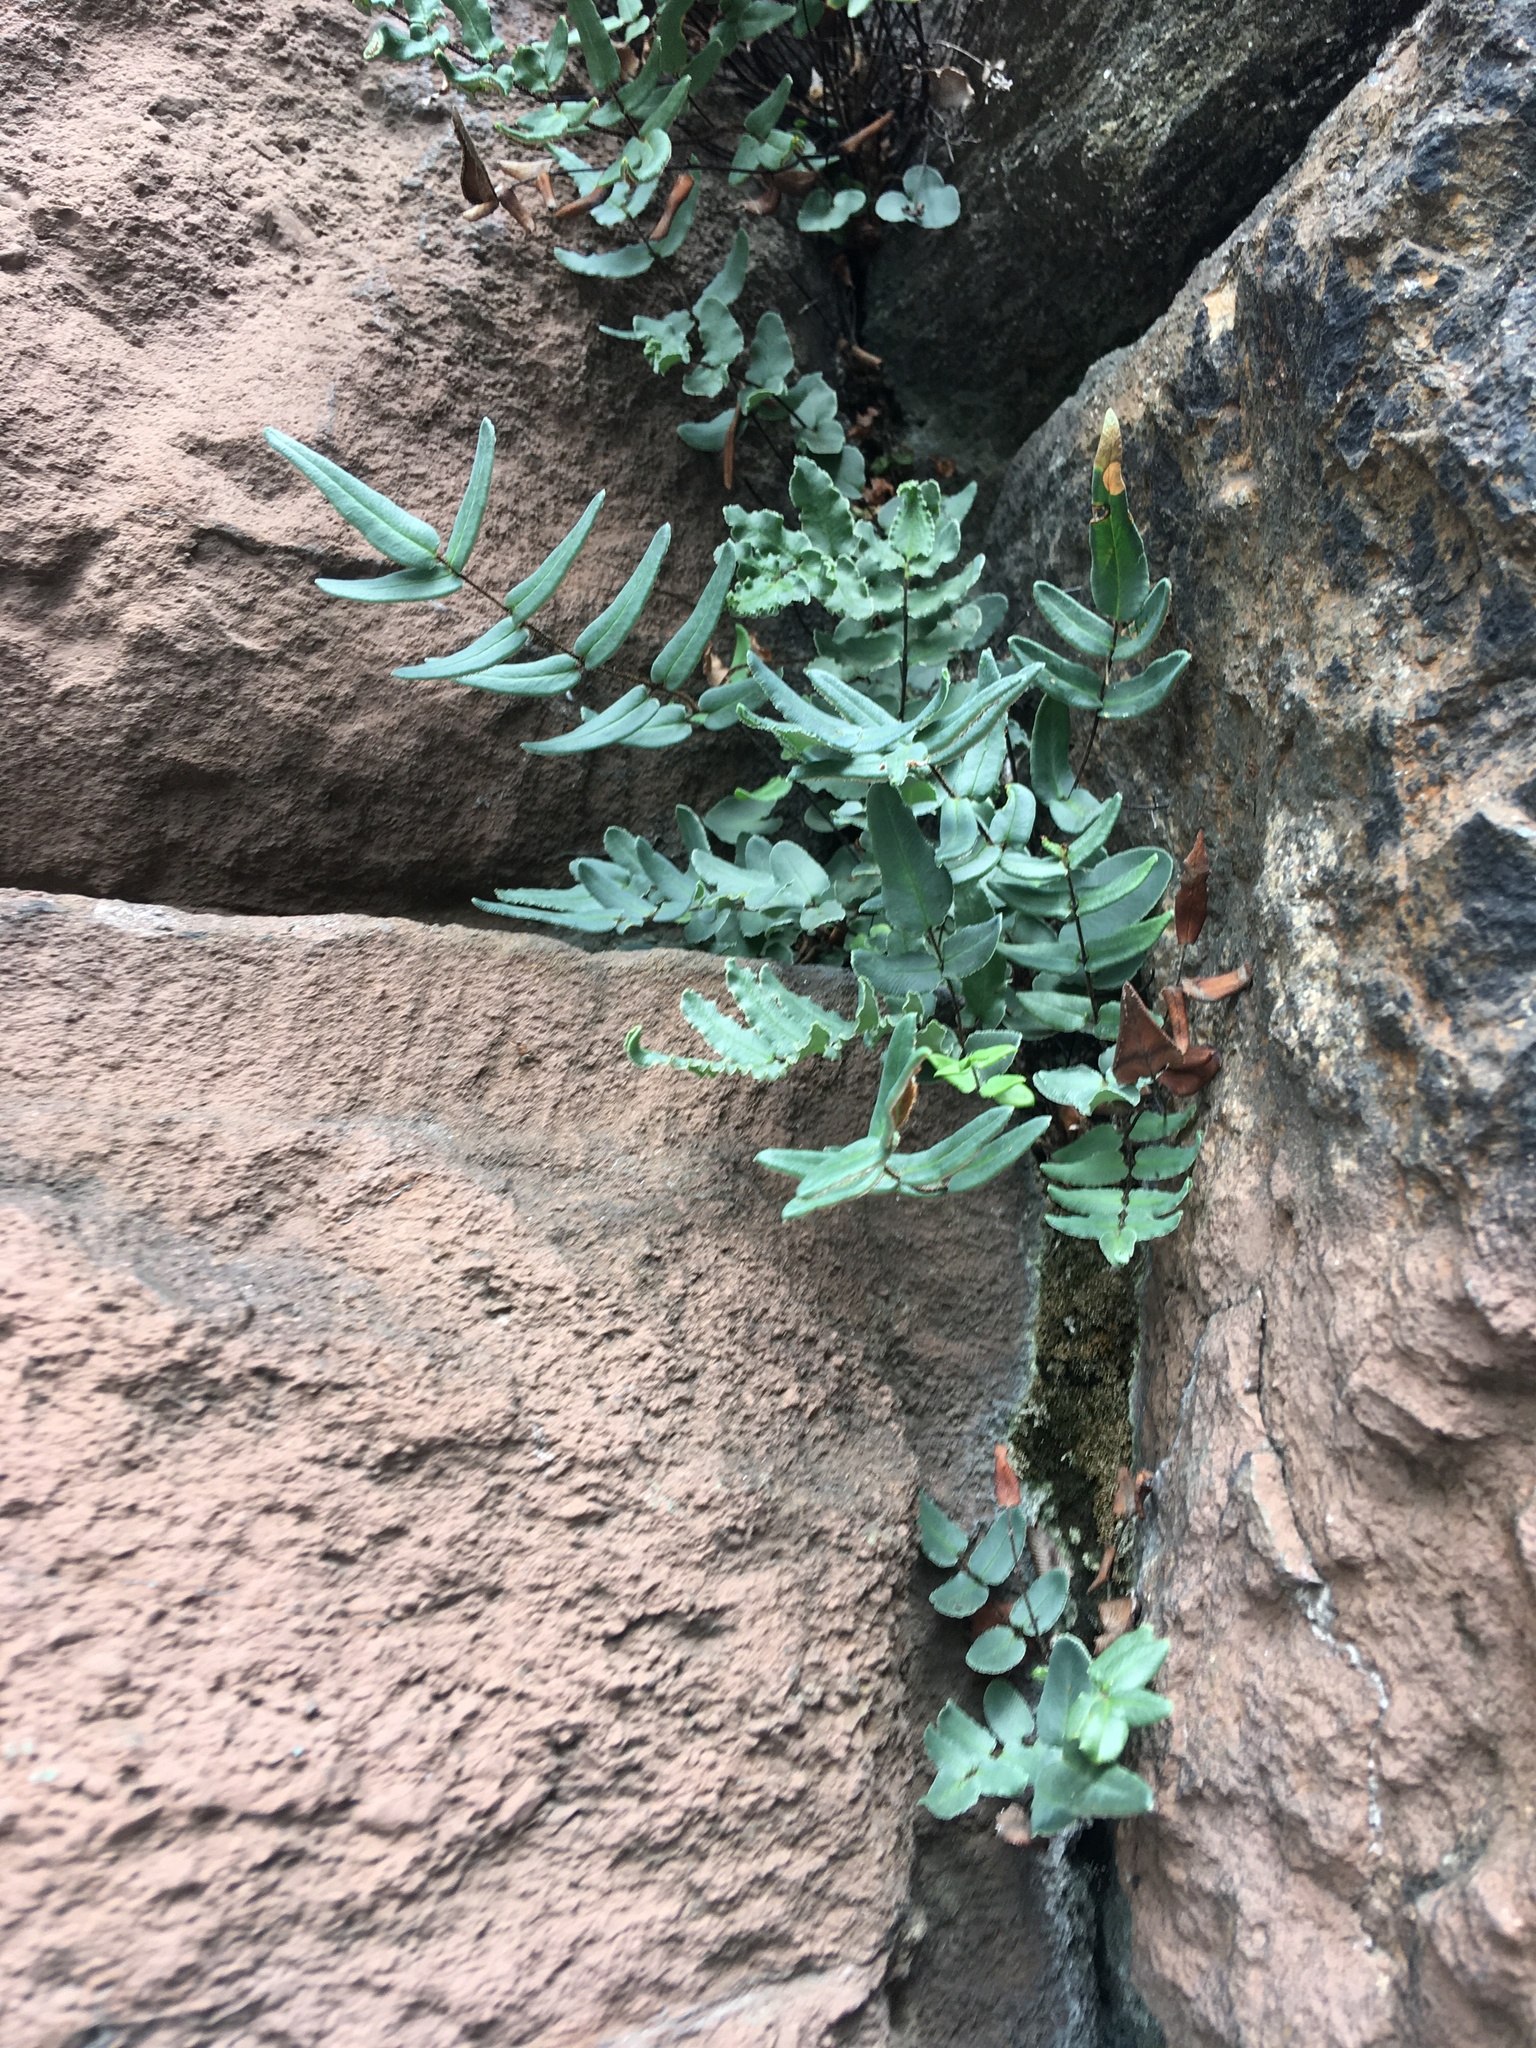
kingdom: Plantae
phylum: Tracheophyta
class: Polypodiopsida
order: Polypodiales
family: Pteridaceae
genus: Pellaea
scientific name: Pellaea atropurpurea
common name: Hairy cliffbrake
